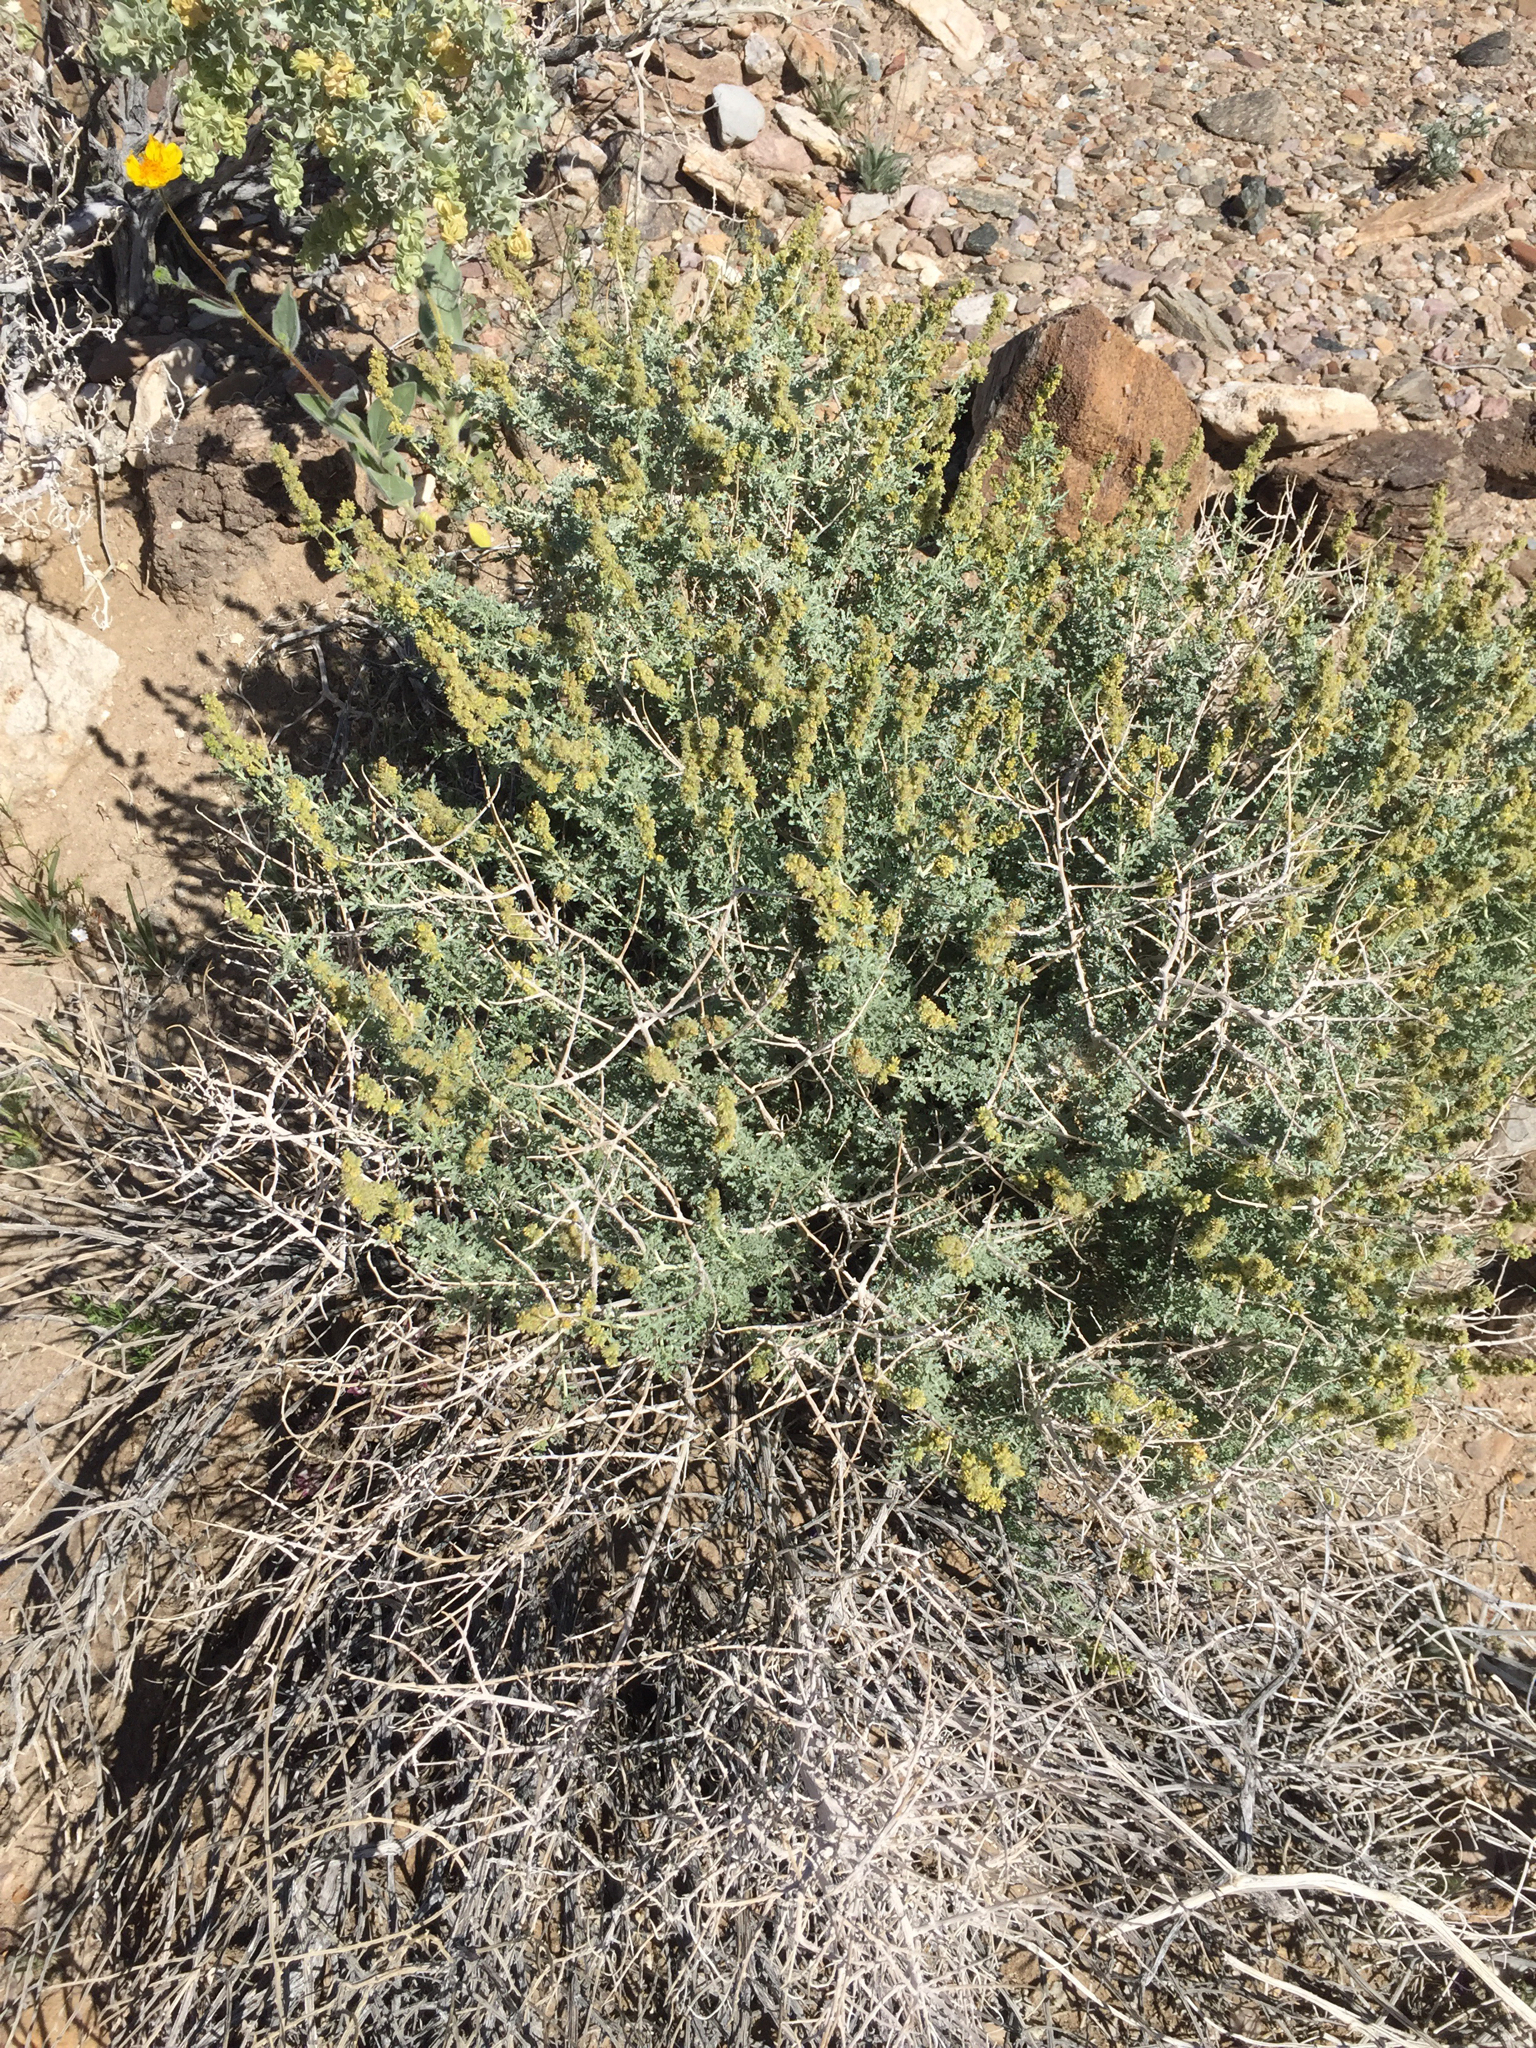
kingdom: Plantae
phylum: Tracheophyta
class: Magnoliopsida
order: Asterales
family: Asteraceae
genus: Ambrosia
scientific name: Ambrosia dumosa
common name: Bur-sage
